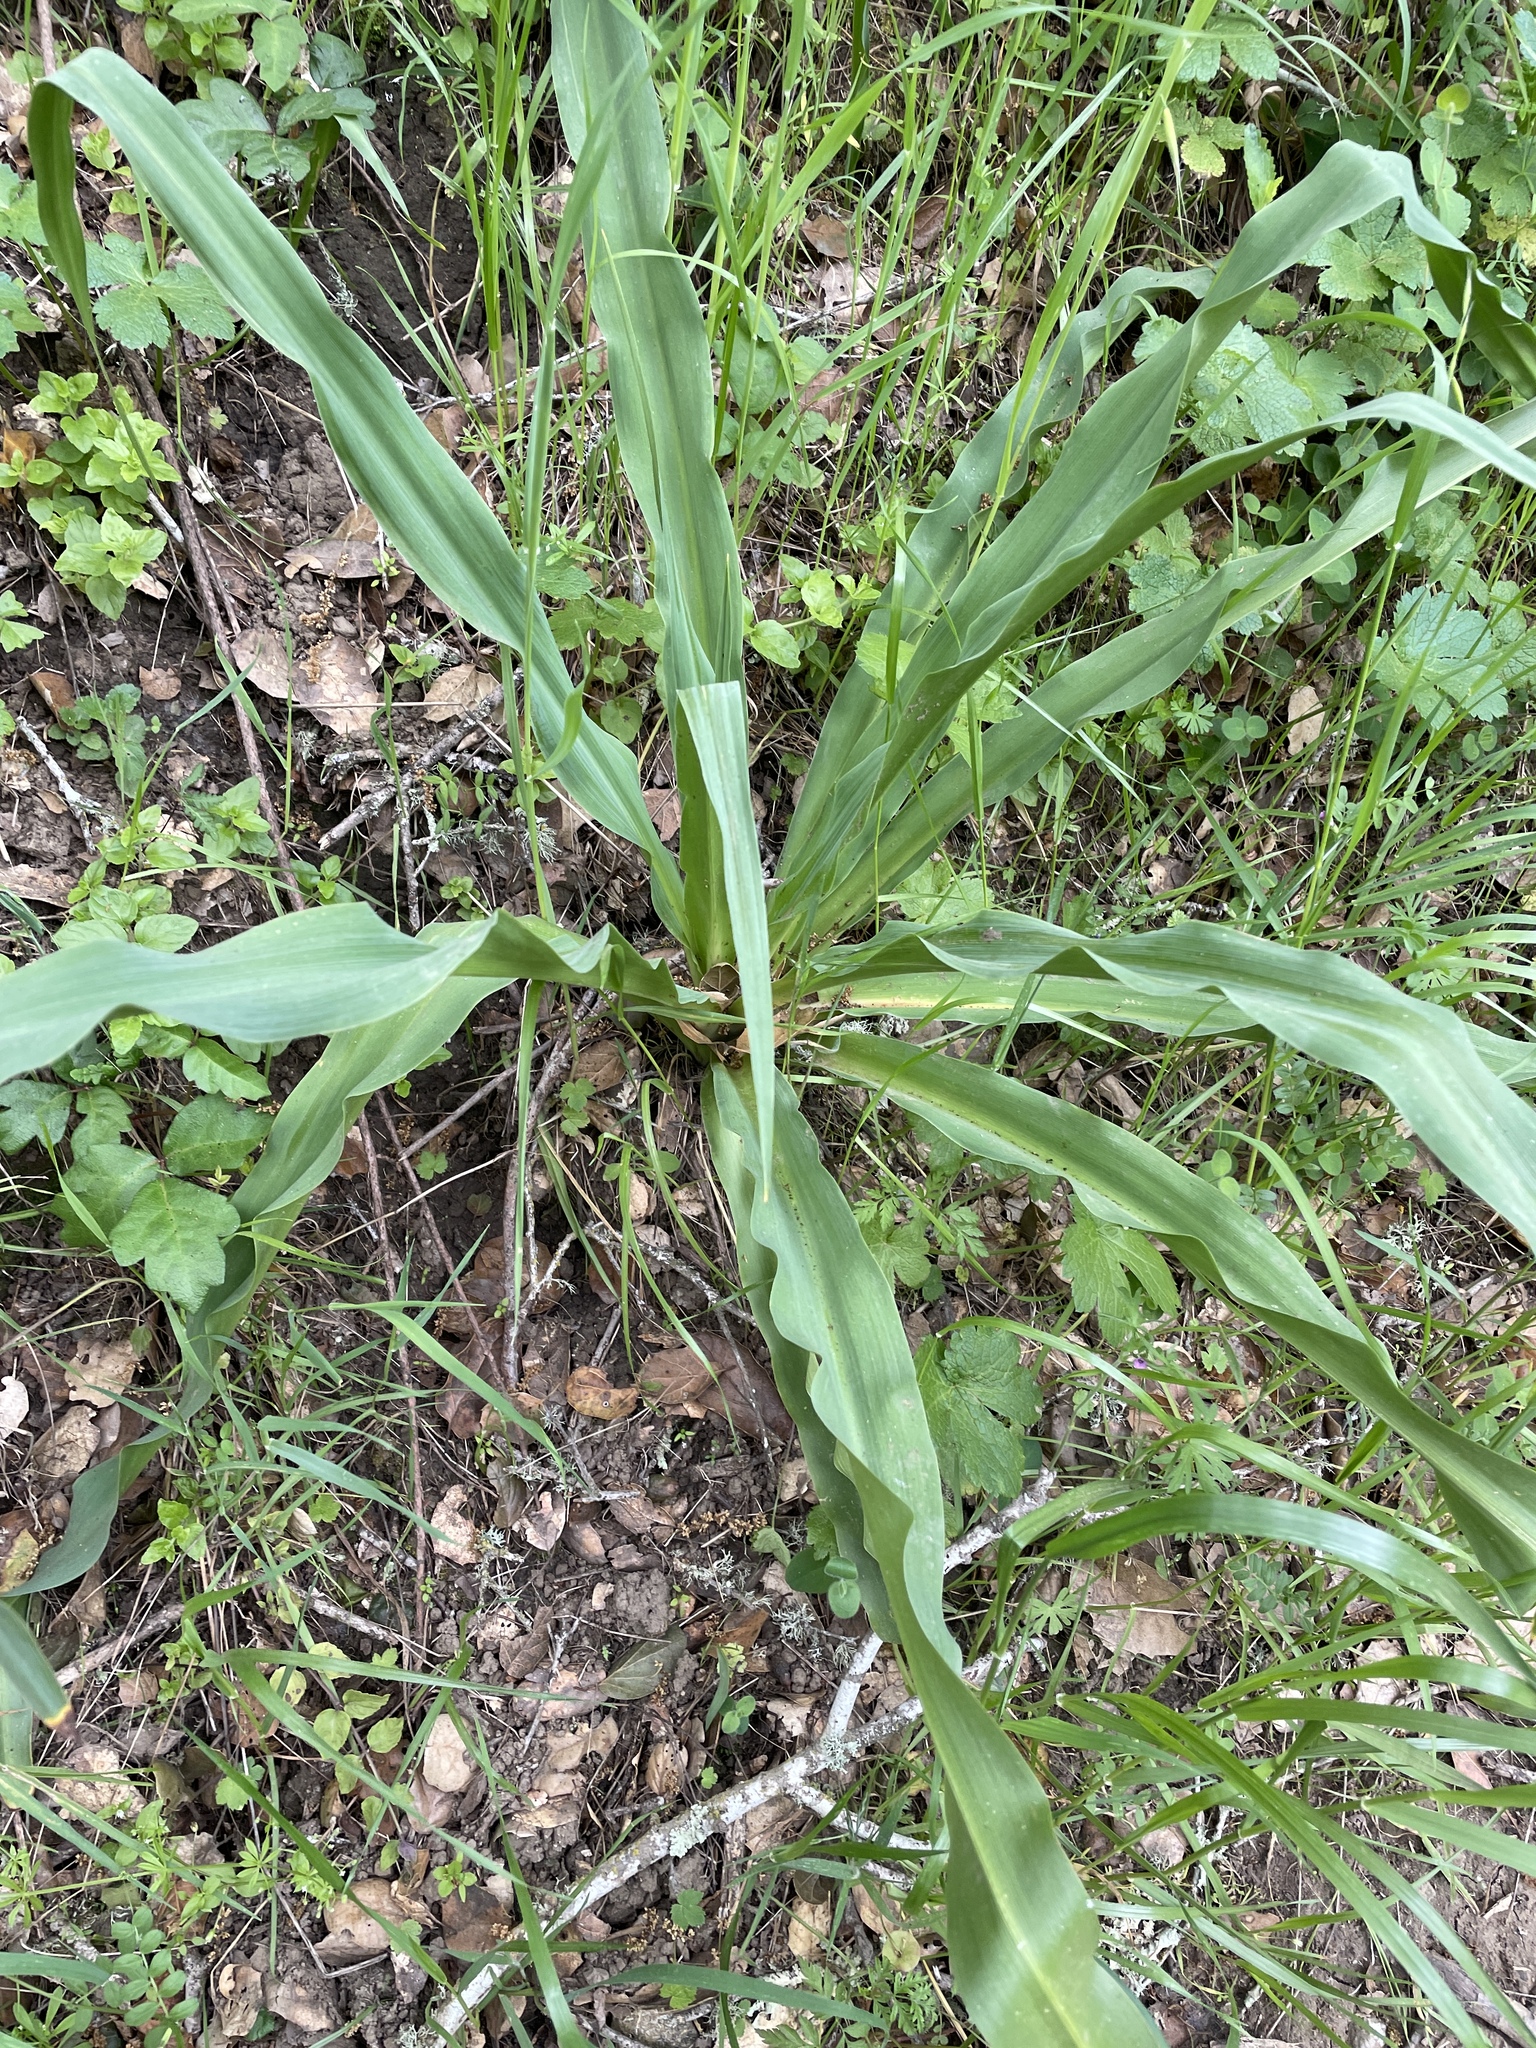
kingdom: Plantae
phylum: Tracheophyta
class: Liliopsida
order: Asparagales
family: Asparagaceae
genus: Chlorogalum
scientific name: Chlorogalum pomeridianum
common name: Amole
